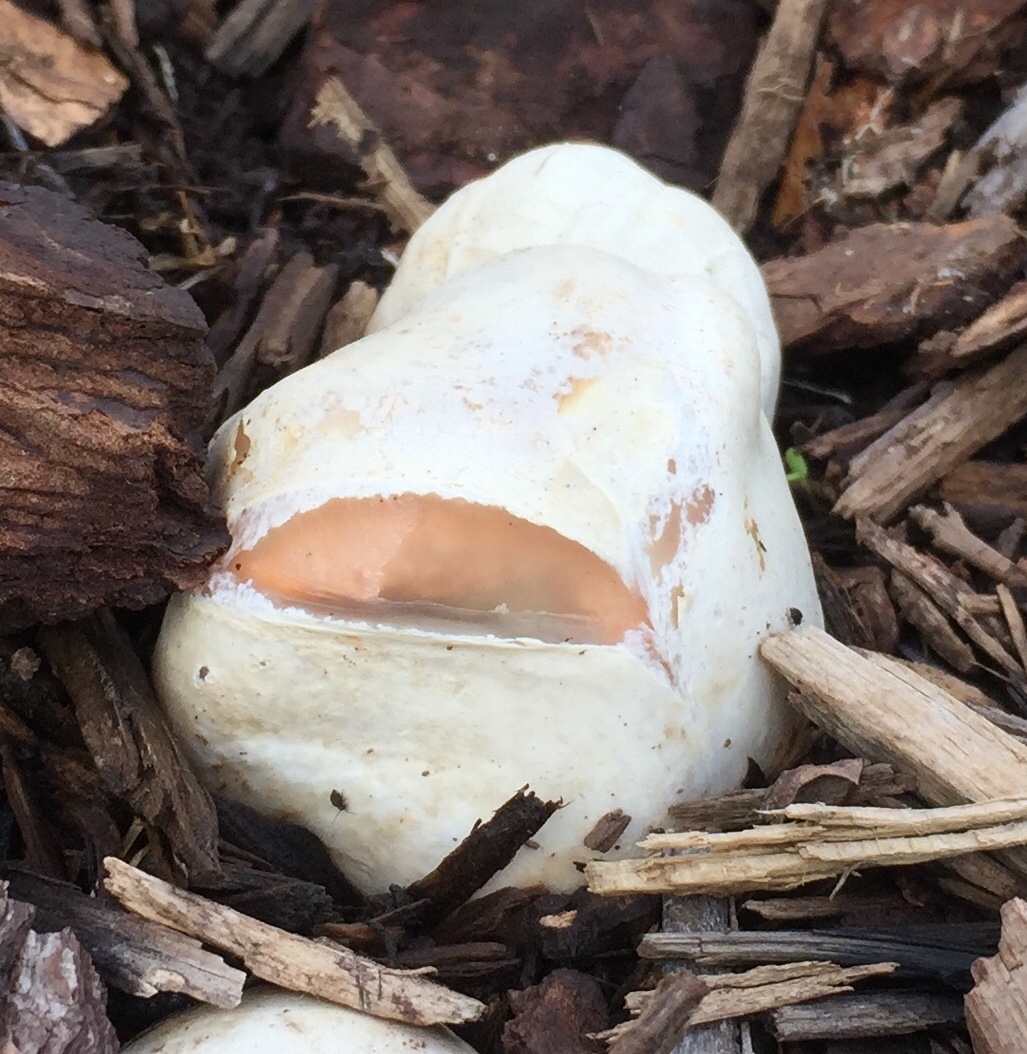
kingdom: Fungi
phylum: Basidiomycota
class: Agaricomycetes
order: Phallales
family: Phallaceae
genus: Clathrus
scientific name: Clathrus columnatus
